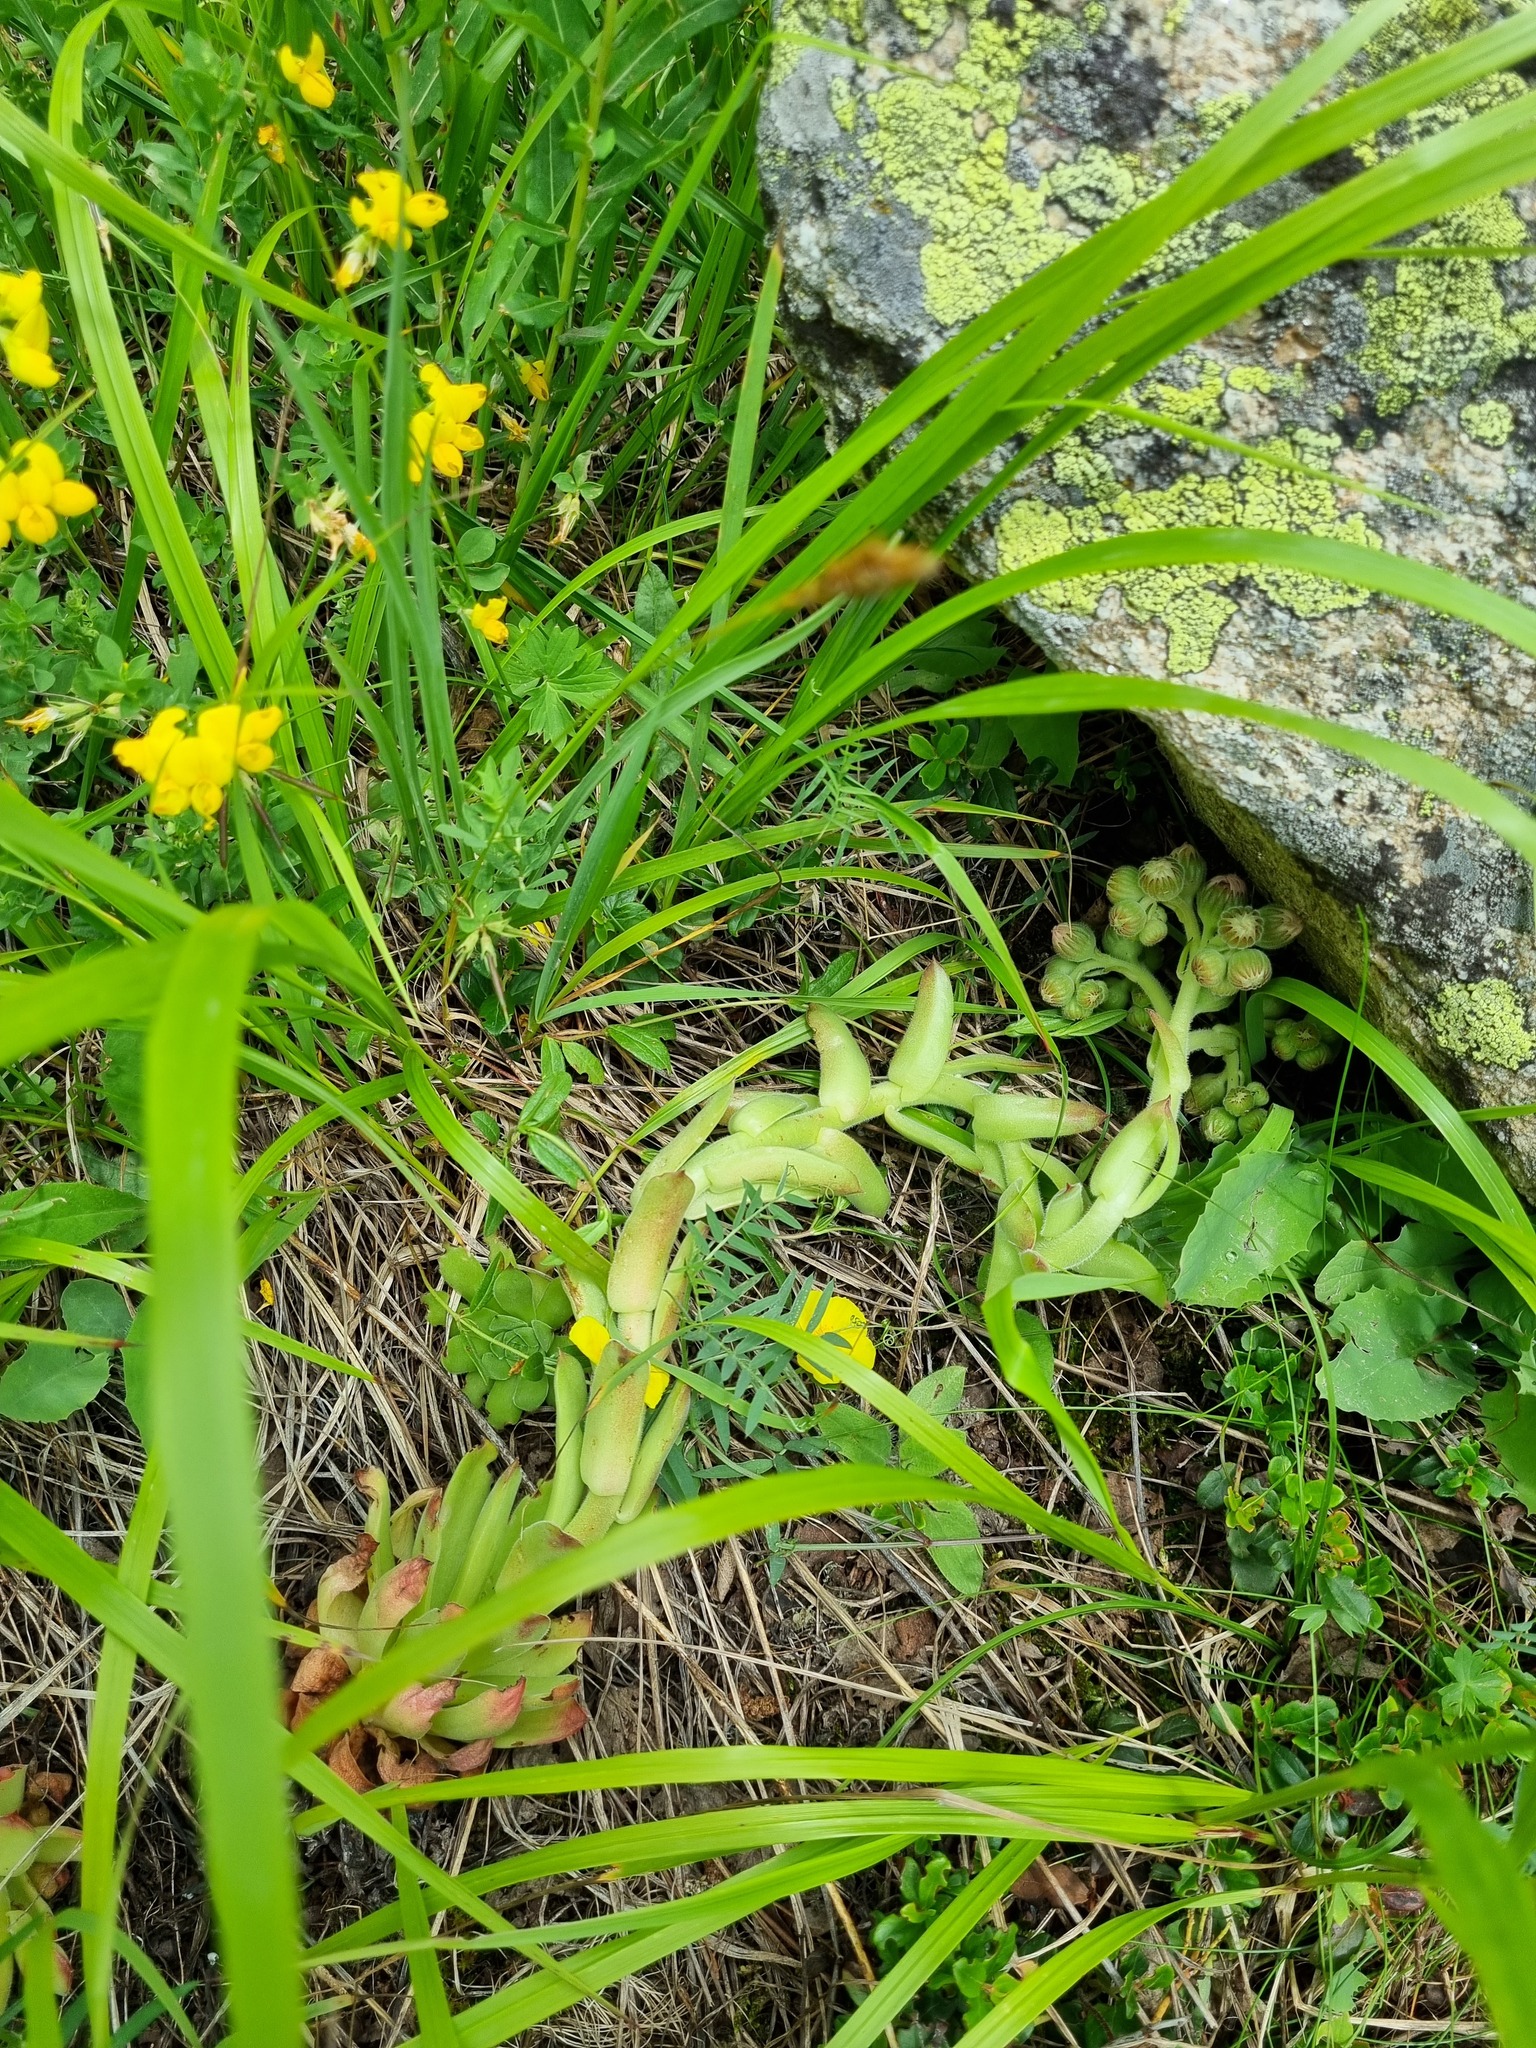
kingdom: Plantae
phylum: Tracheophyta
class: Magnoliopsida
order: Saxifragales
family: Crassulaceae
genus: Sempervivum
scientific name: Sempervivum caucasicum
